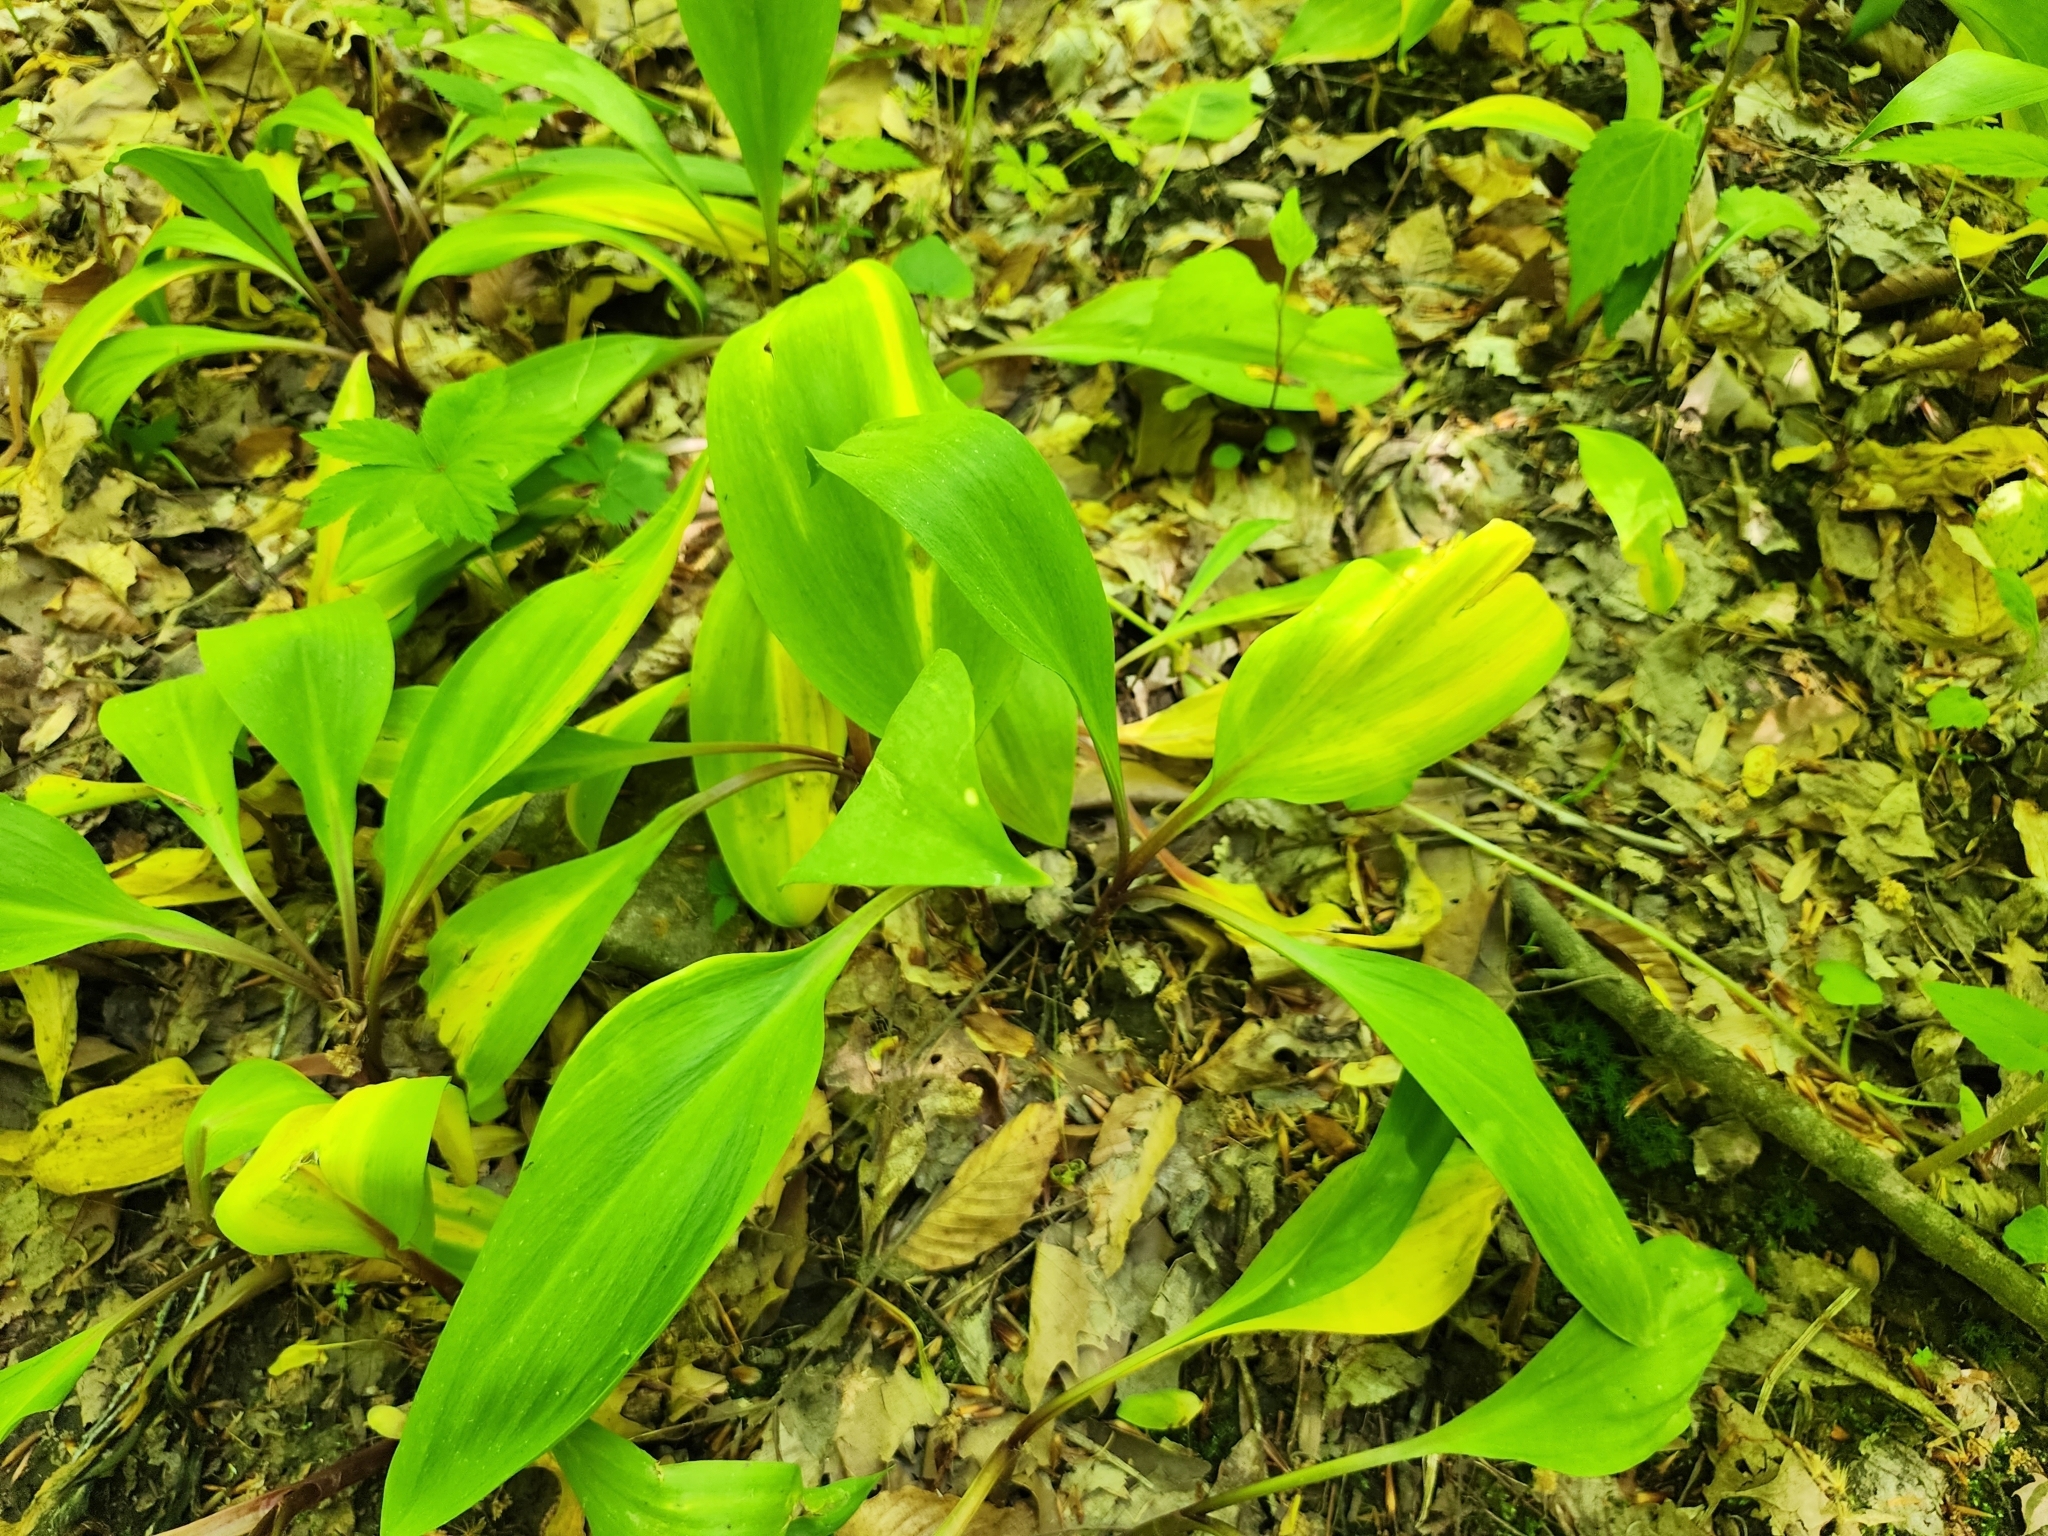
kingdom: Plantae
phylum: Tracheophyta
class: Liliopsida
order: Asparagales
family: Amaryllidaceae
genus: Allium
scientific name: Allium tricoccum
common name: Ramp
